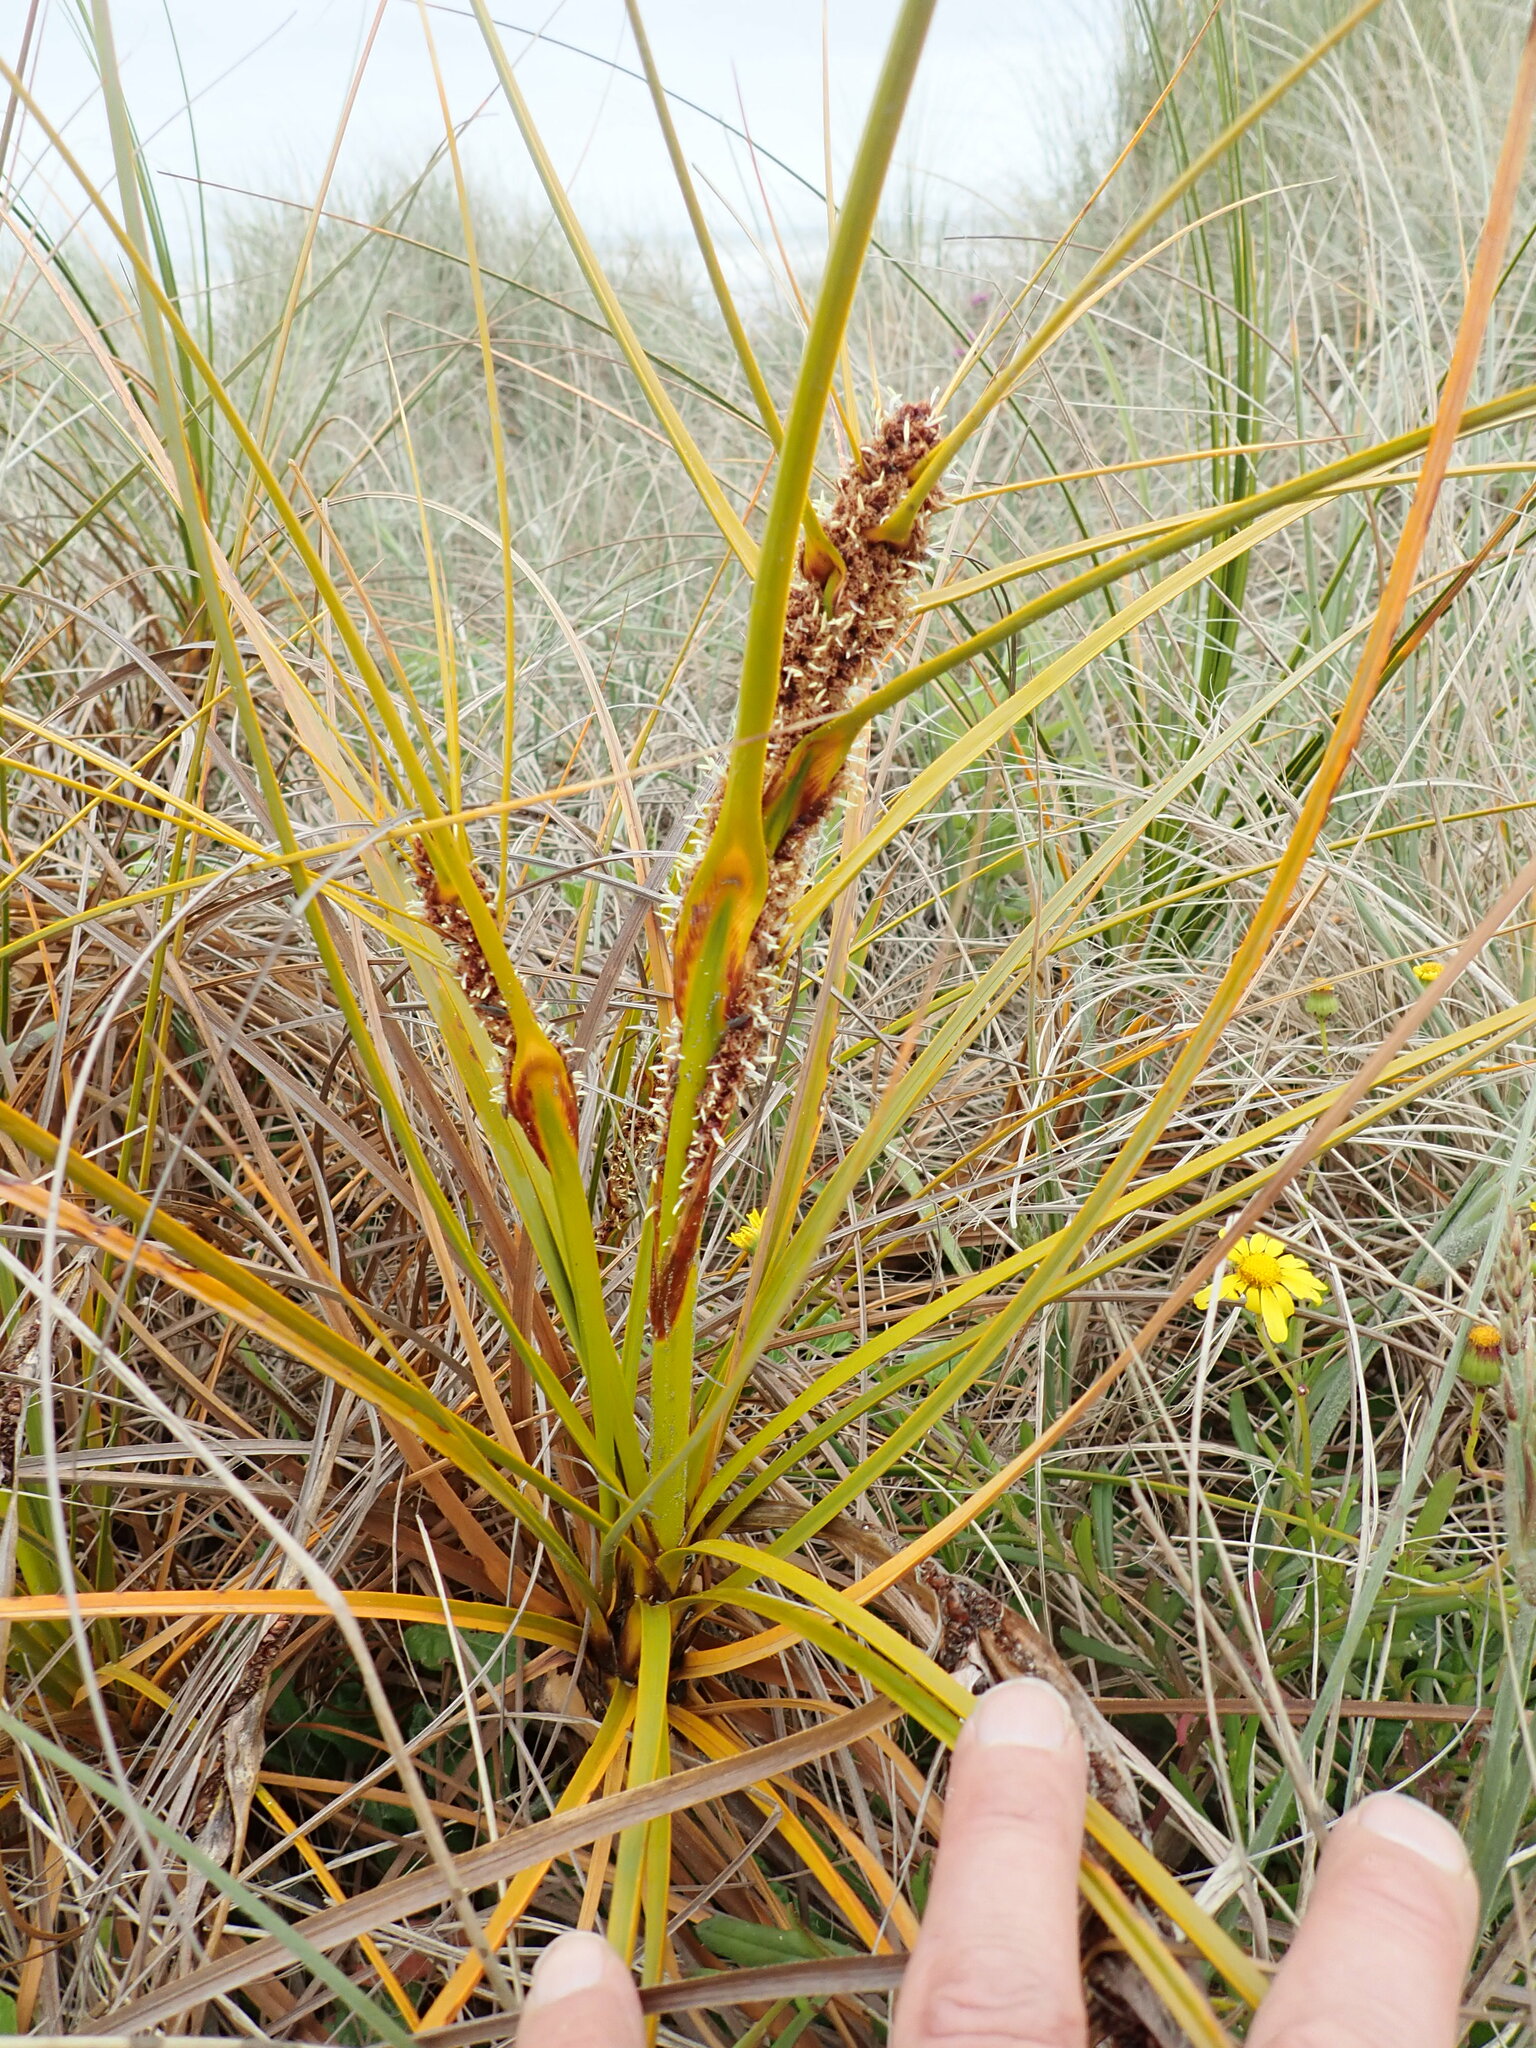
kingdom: Plantae
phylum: Tracheophyta
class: Liliopsida
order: Poales
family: Cyperaceae
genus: Ficinia
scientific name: Ficinia spiralis
